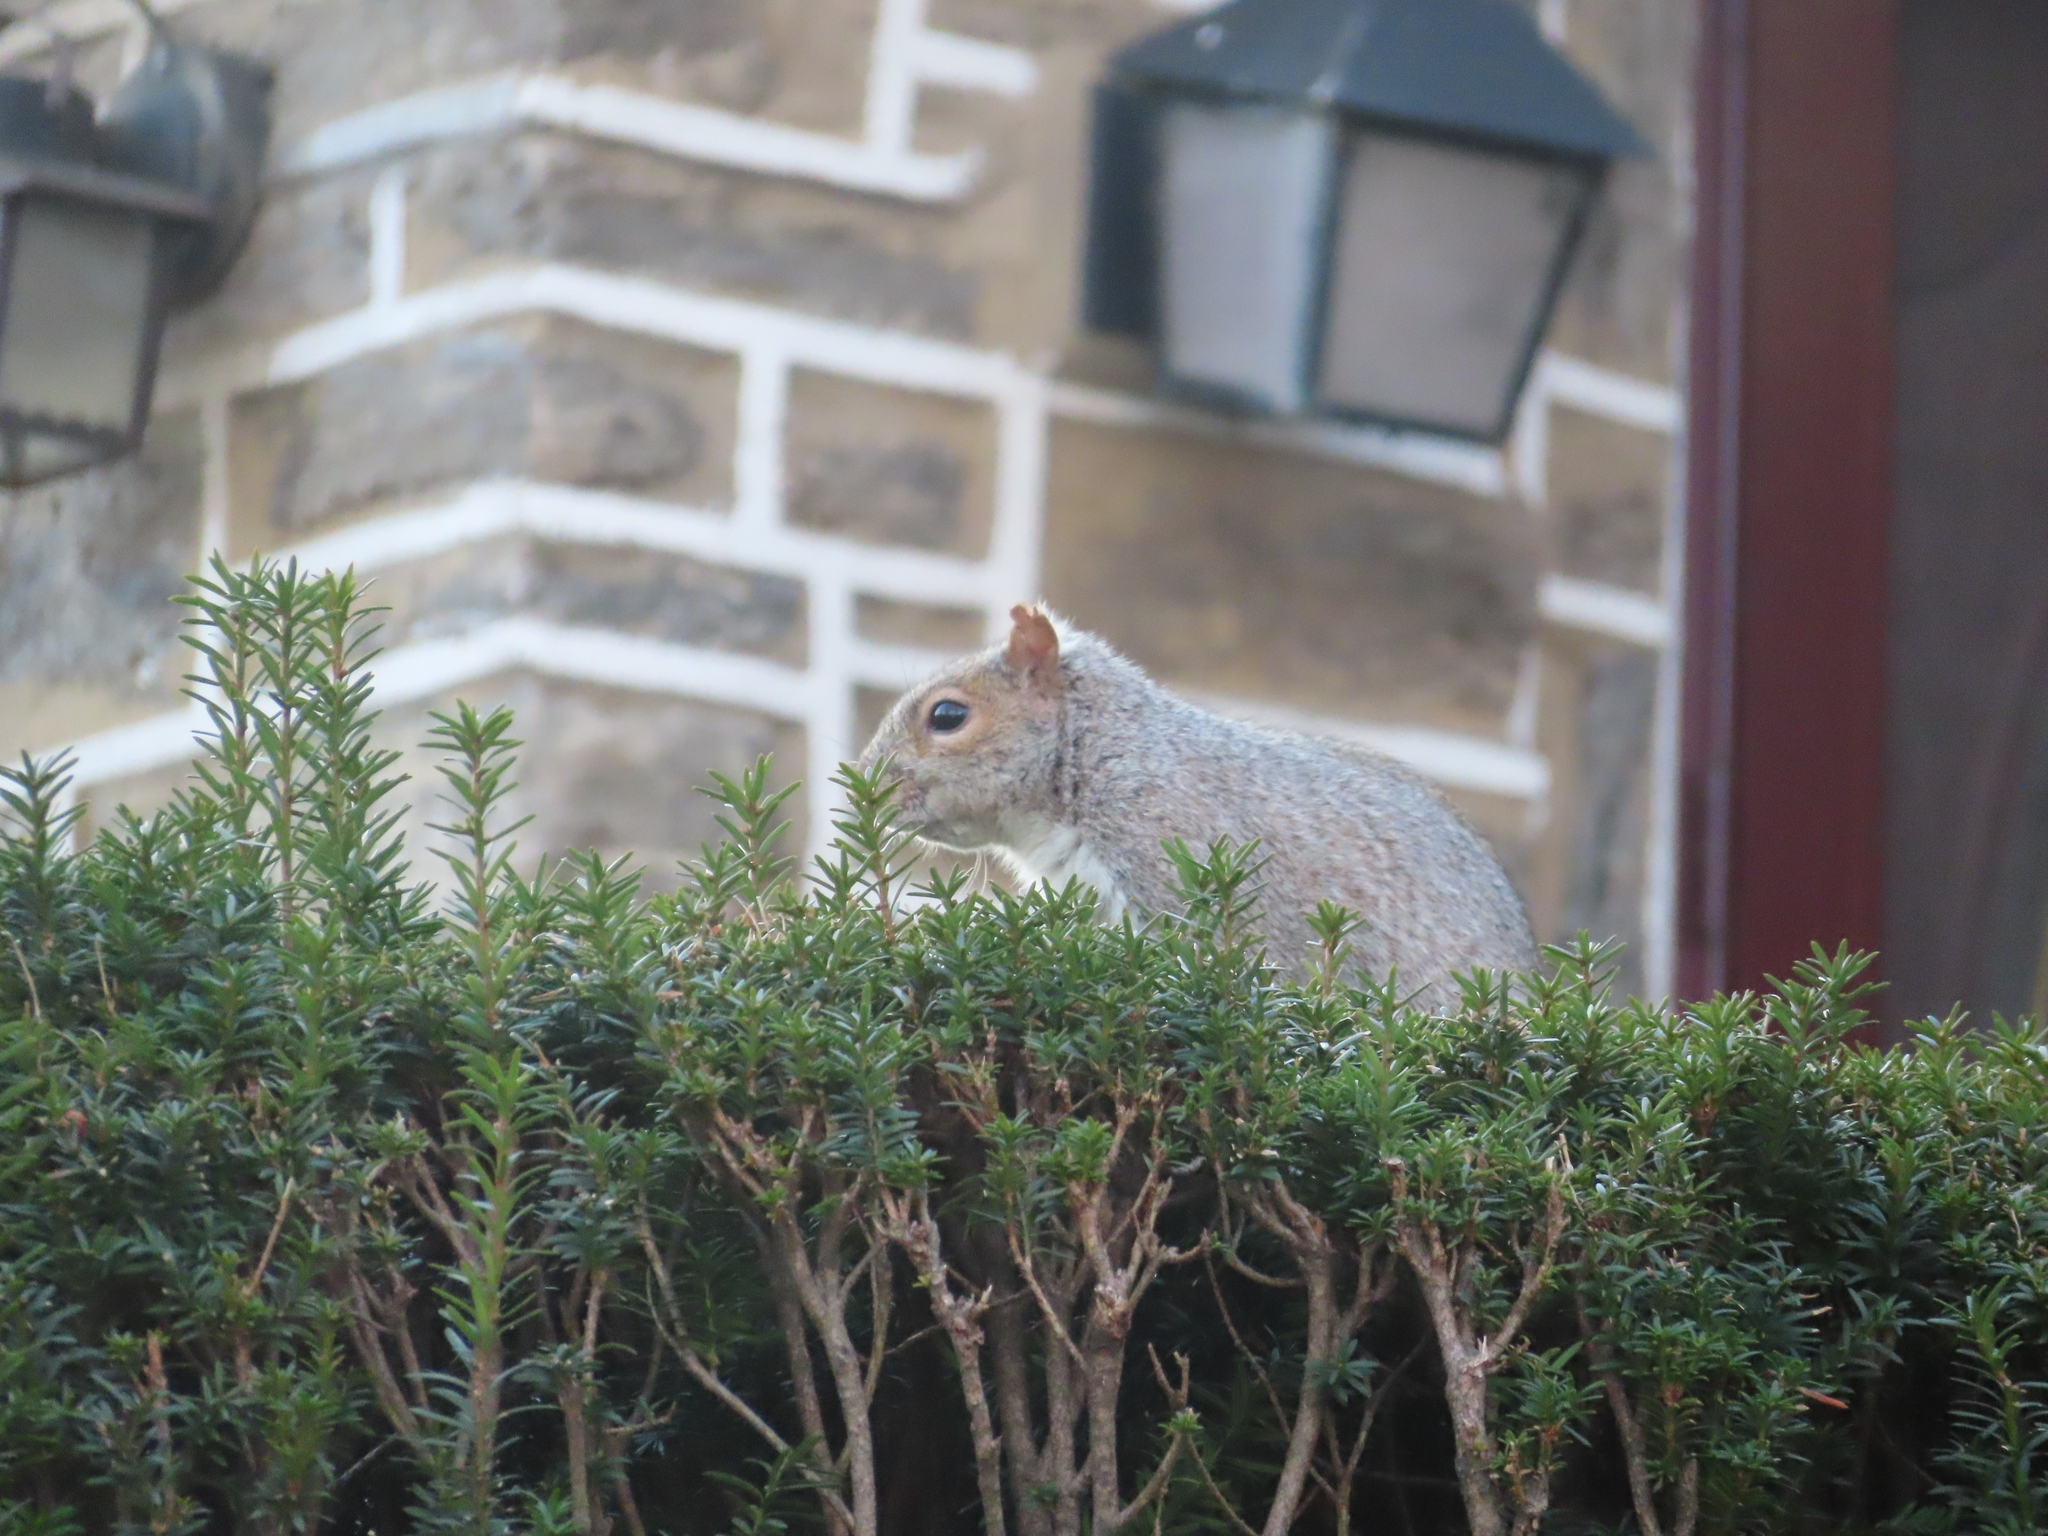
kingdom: Animalia
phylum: Chordata
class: Mammalia
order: Rodentia
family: Sciuridae
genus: Sciurus
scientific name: Sciurus carolinensis
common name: Eastern gray squirrel
